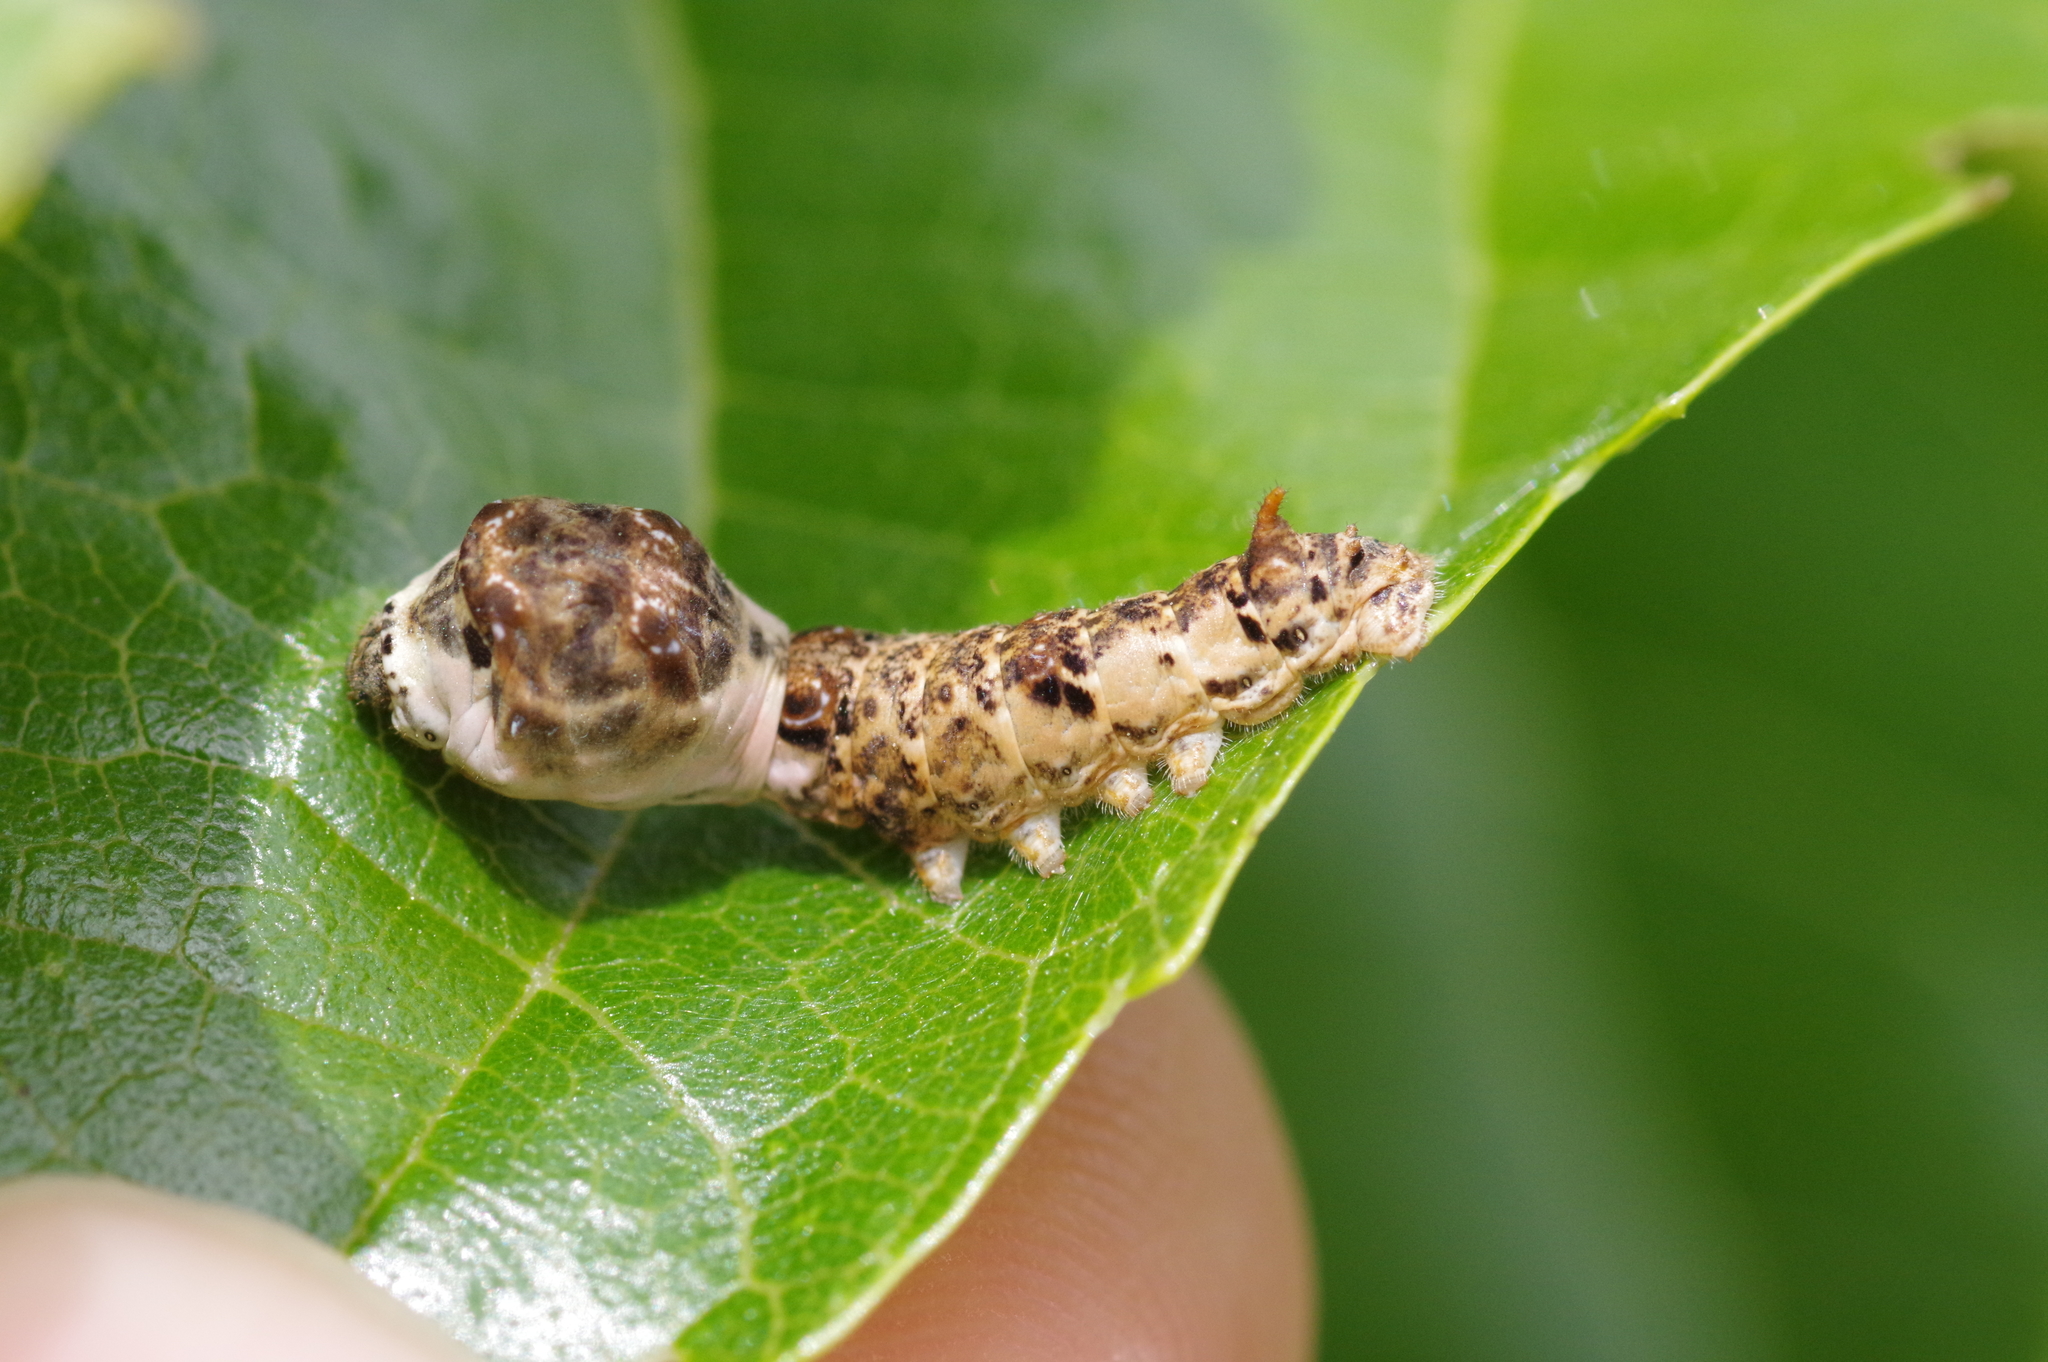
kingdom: Animalia
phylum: Arthropoda
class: Insecta
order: Lepidoptera
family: Bombycidae
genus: Bombyx
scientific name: Bombyx mandarina
